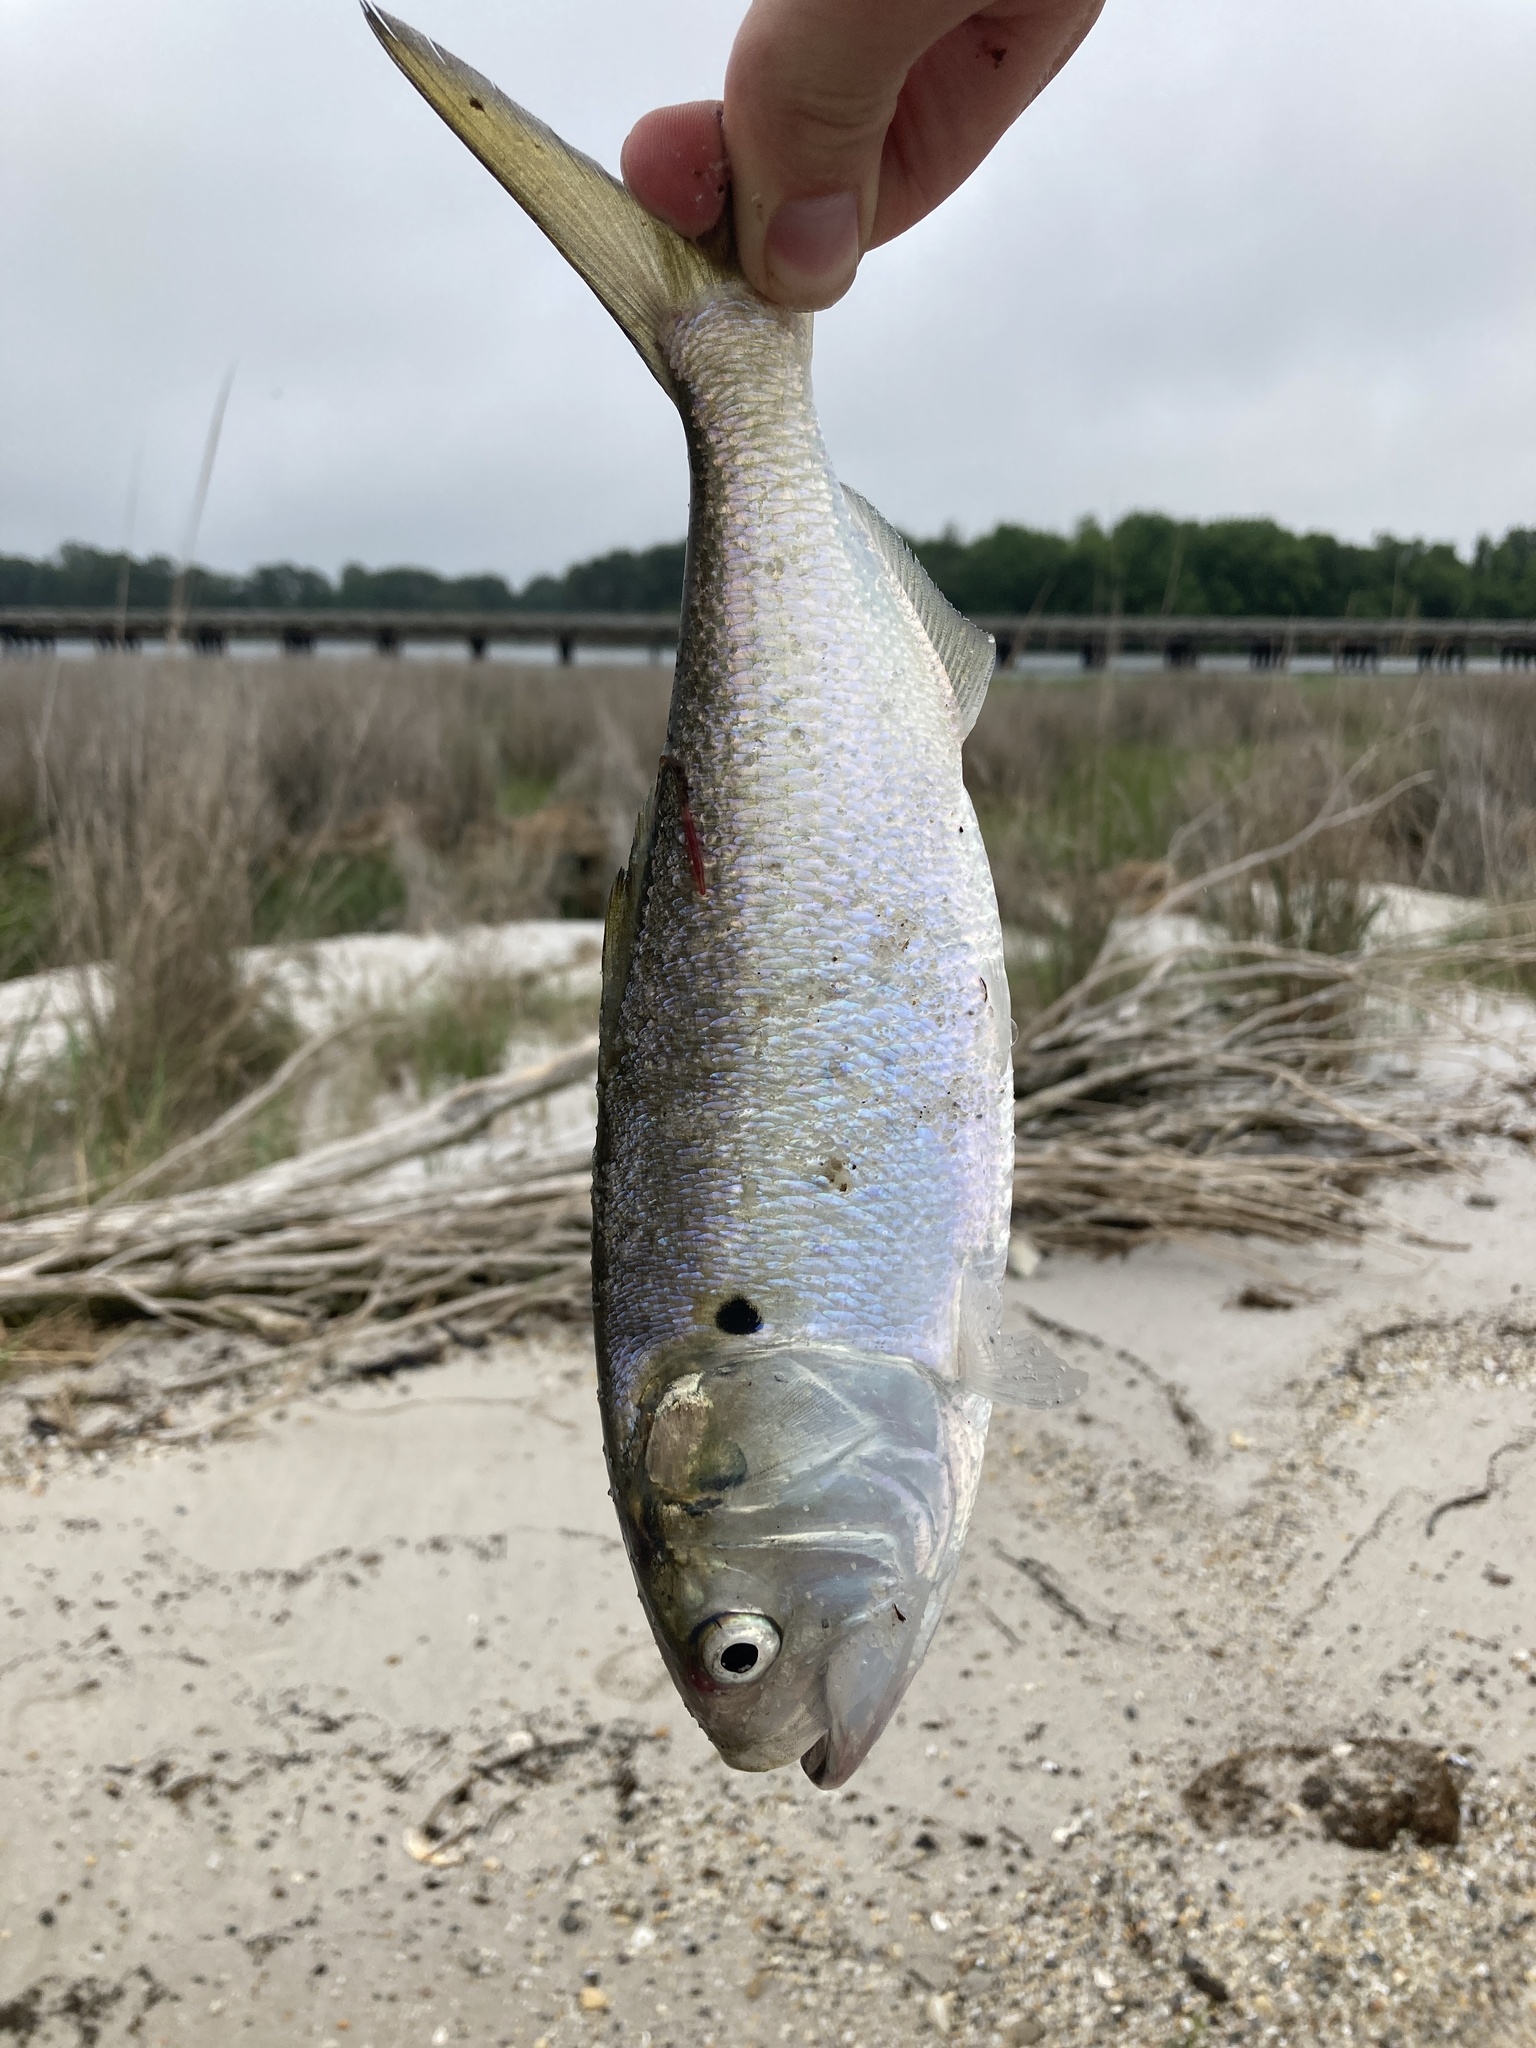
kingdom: Animalia
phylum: Chordata
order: Clupeiformes
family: Clupeidae
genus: Brevoortia
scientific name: Brevoortia tyrannus
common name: Atlantic menhaden
